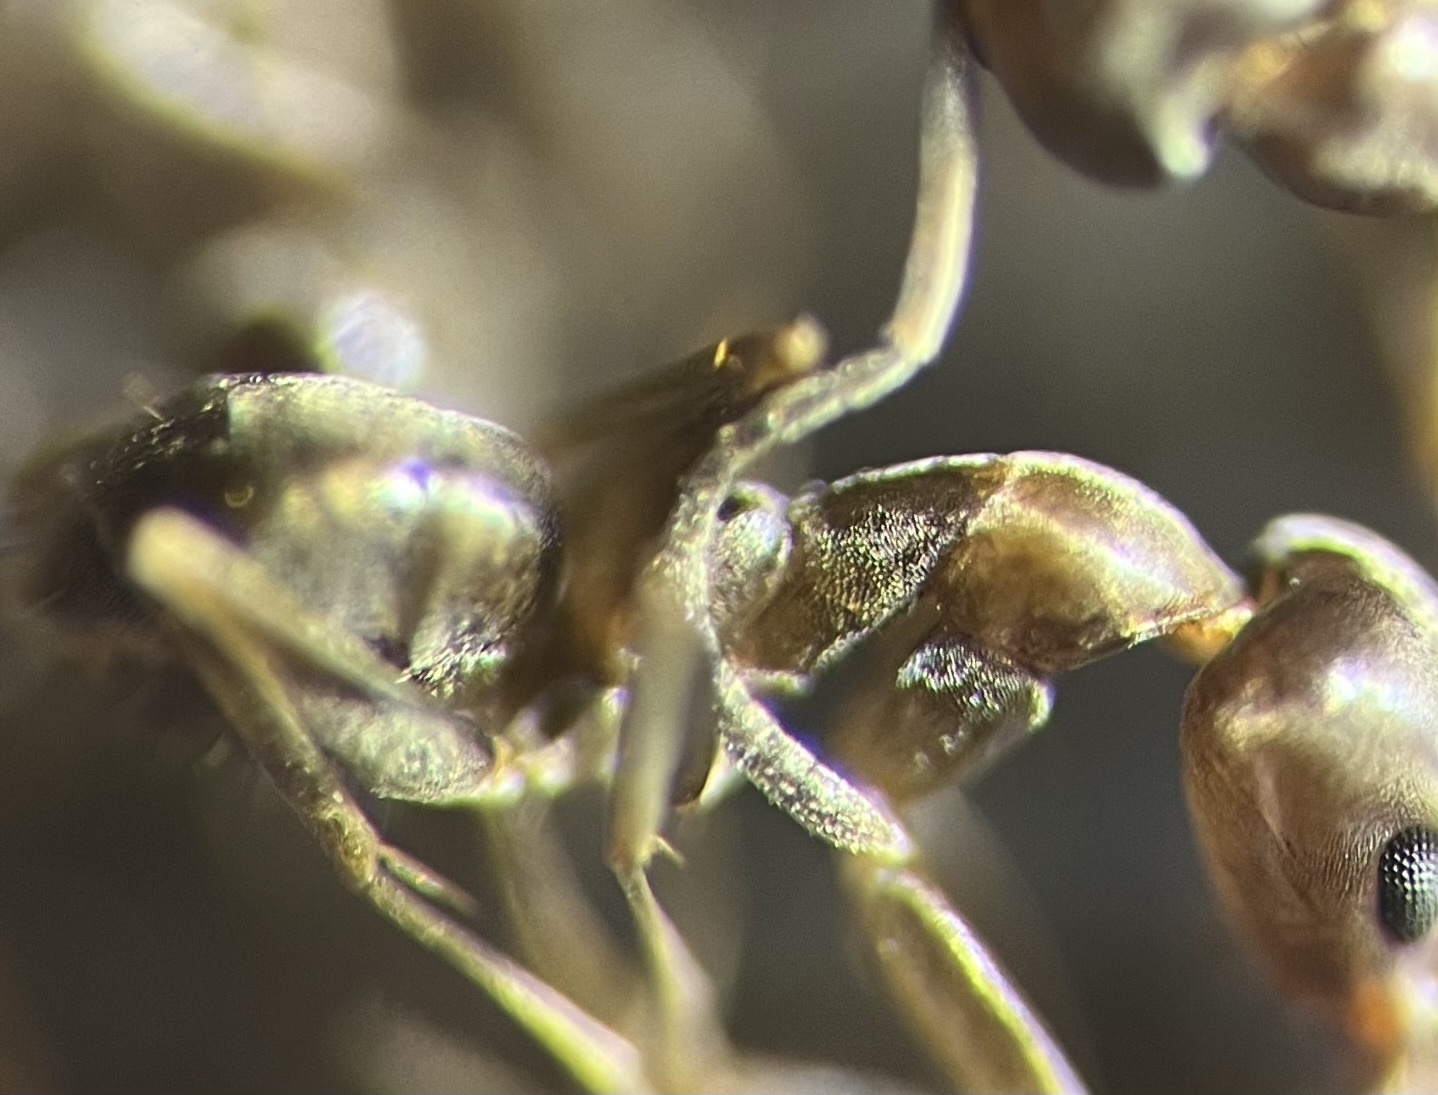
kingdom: Animalia
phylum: Arthropoda
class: Insecta
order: Hymenoptera
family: Formicidae
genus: Linepithema
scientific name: Linepithema humile
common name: Argentine ant
